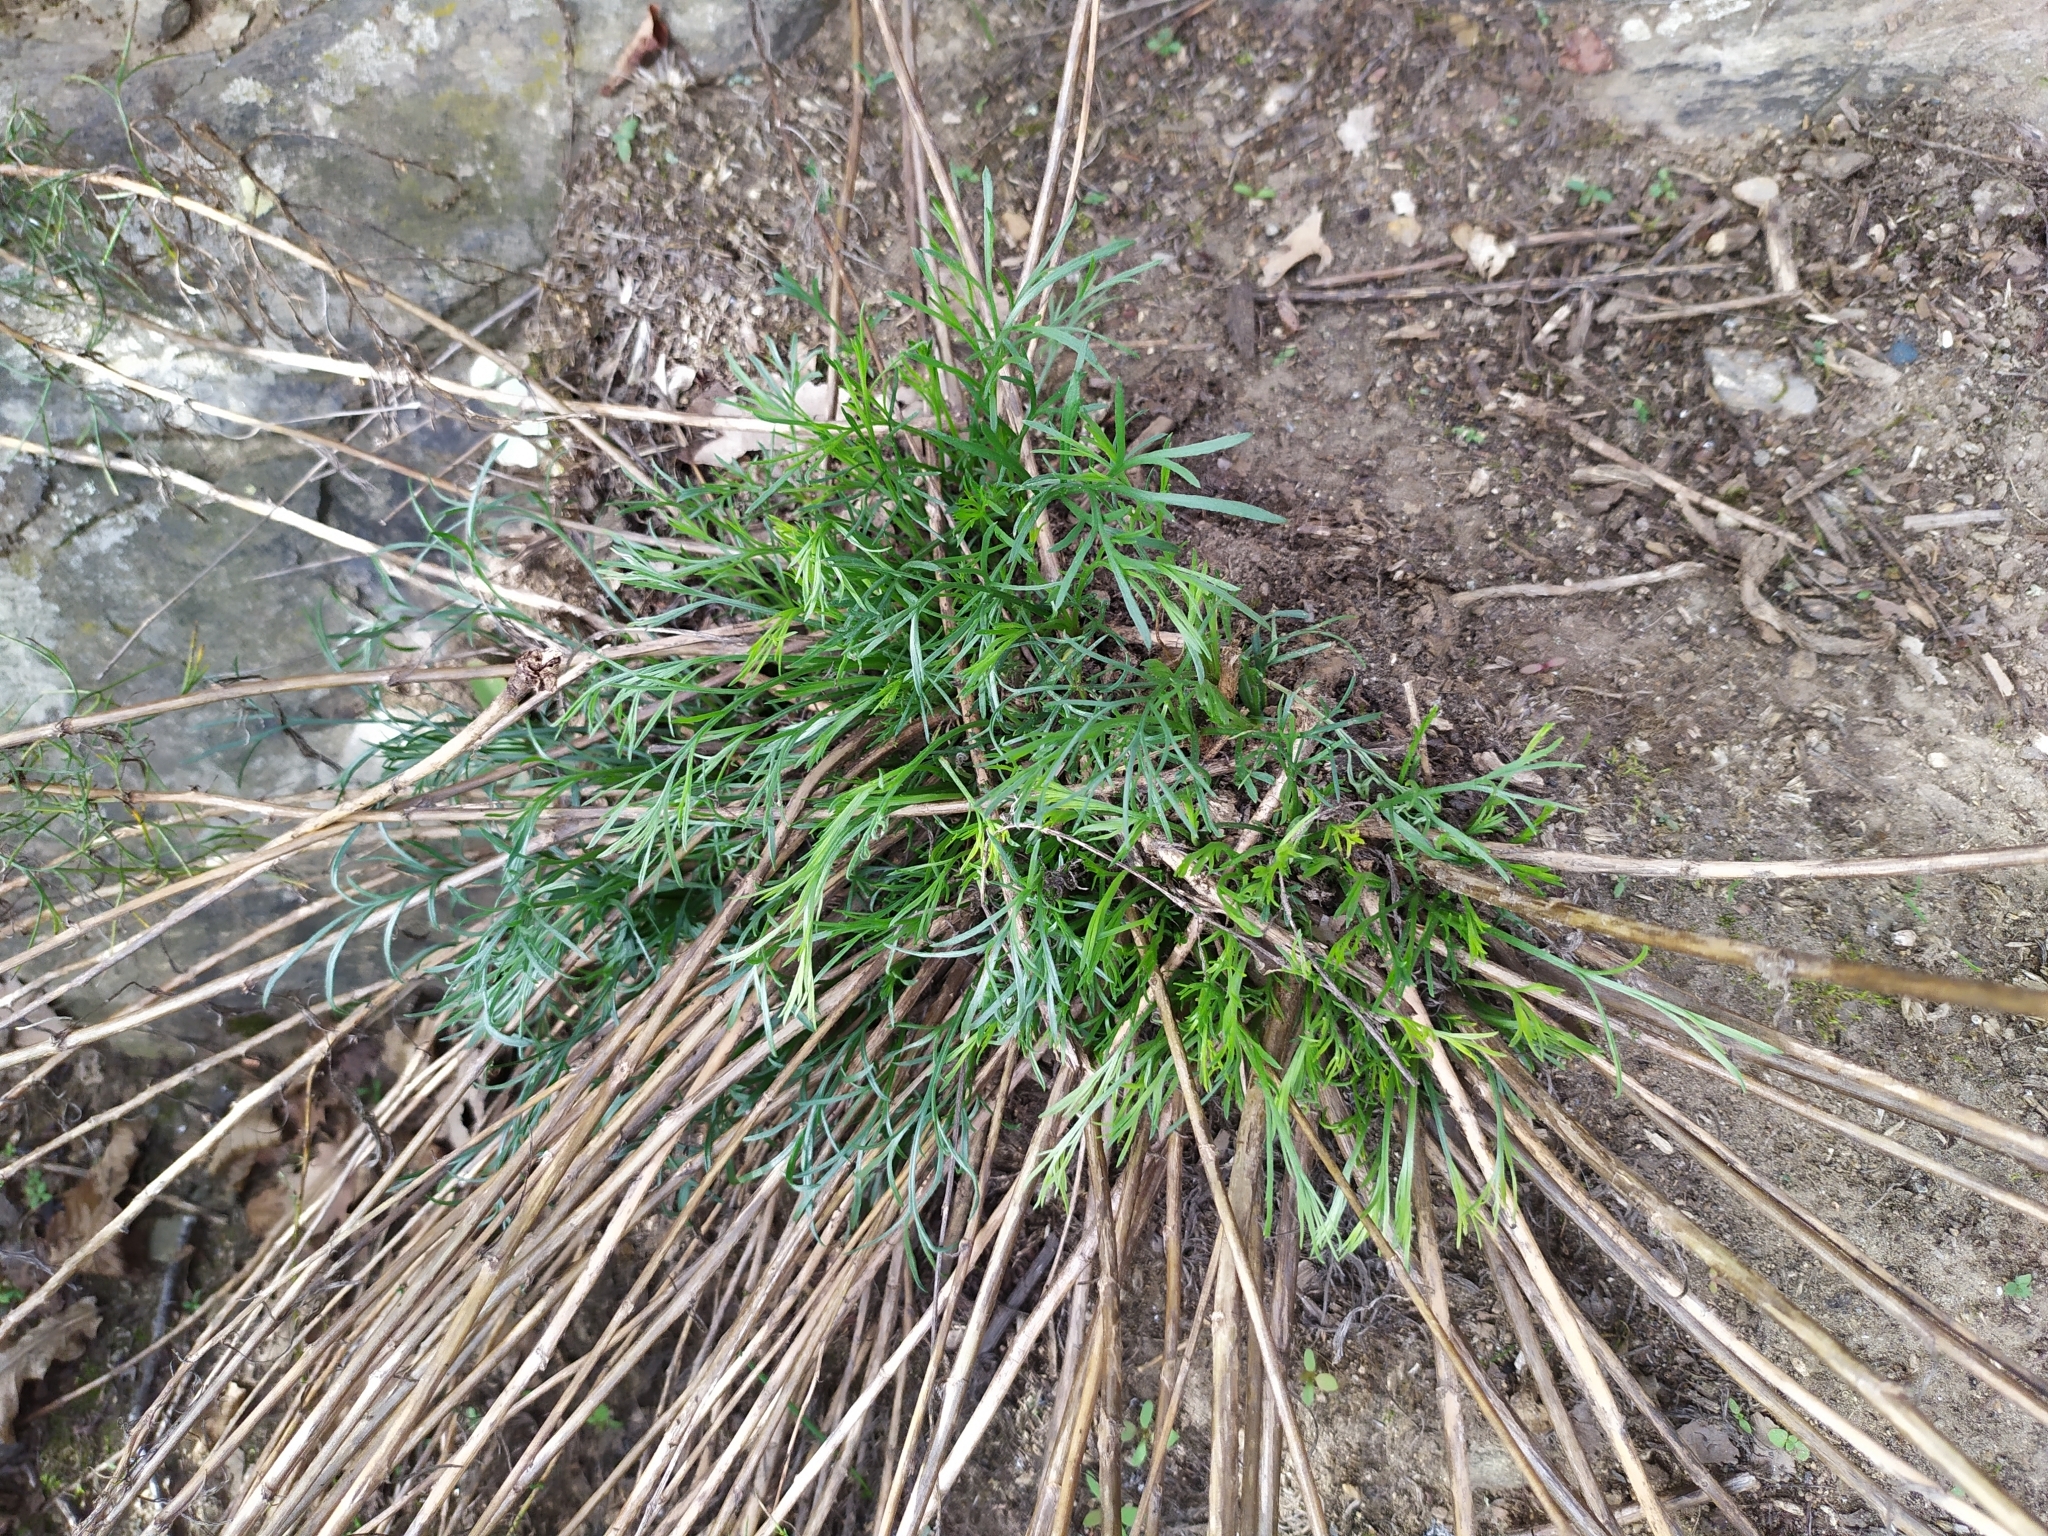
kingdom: Plantae
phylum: Tracheophyta
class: Magnoliopsida
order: Asterales
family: Asteraceae
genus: Artemisia
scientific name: Artemisia campestris
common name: Field wormwood
